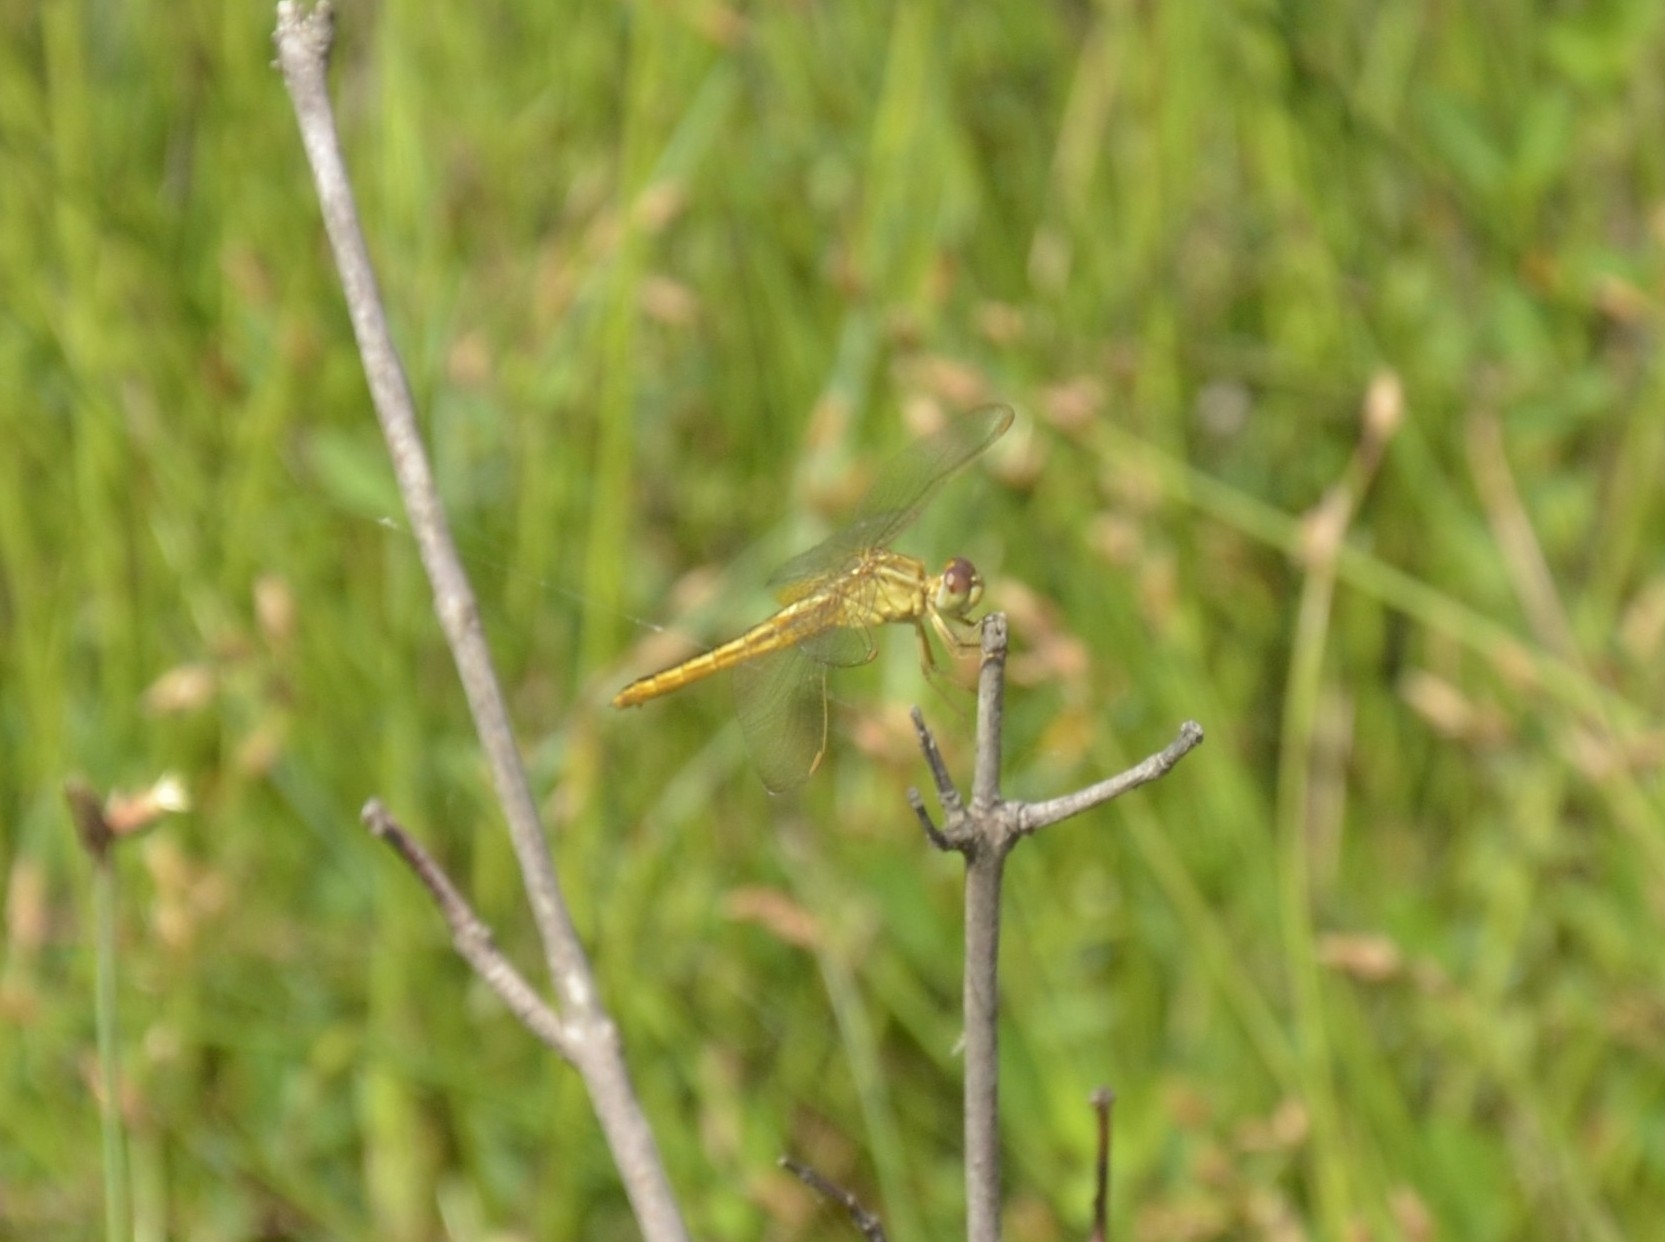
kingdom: Animalia
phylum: Arthropoda
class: Insecta
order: Odonata
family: Libellulidae
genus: Crocothemis
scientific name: Crocothemis servilia
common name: Scarlet skimmer
